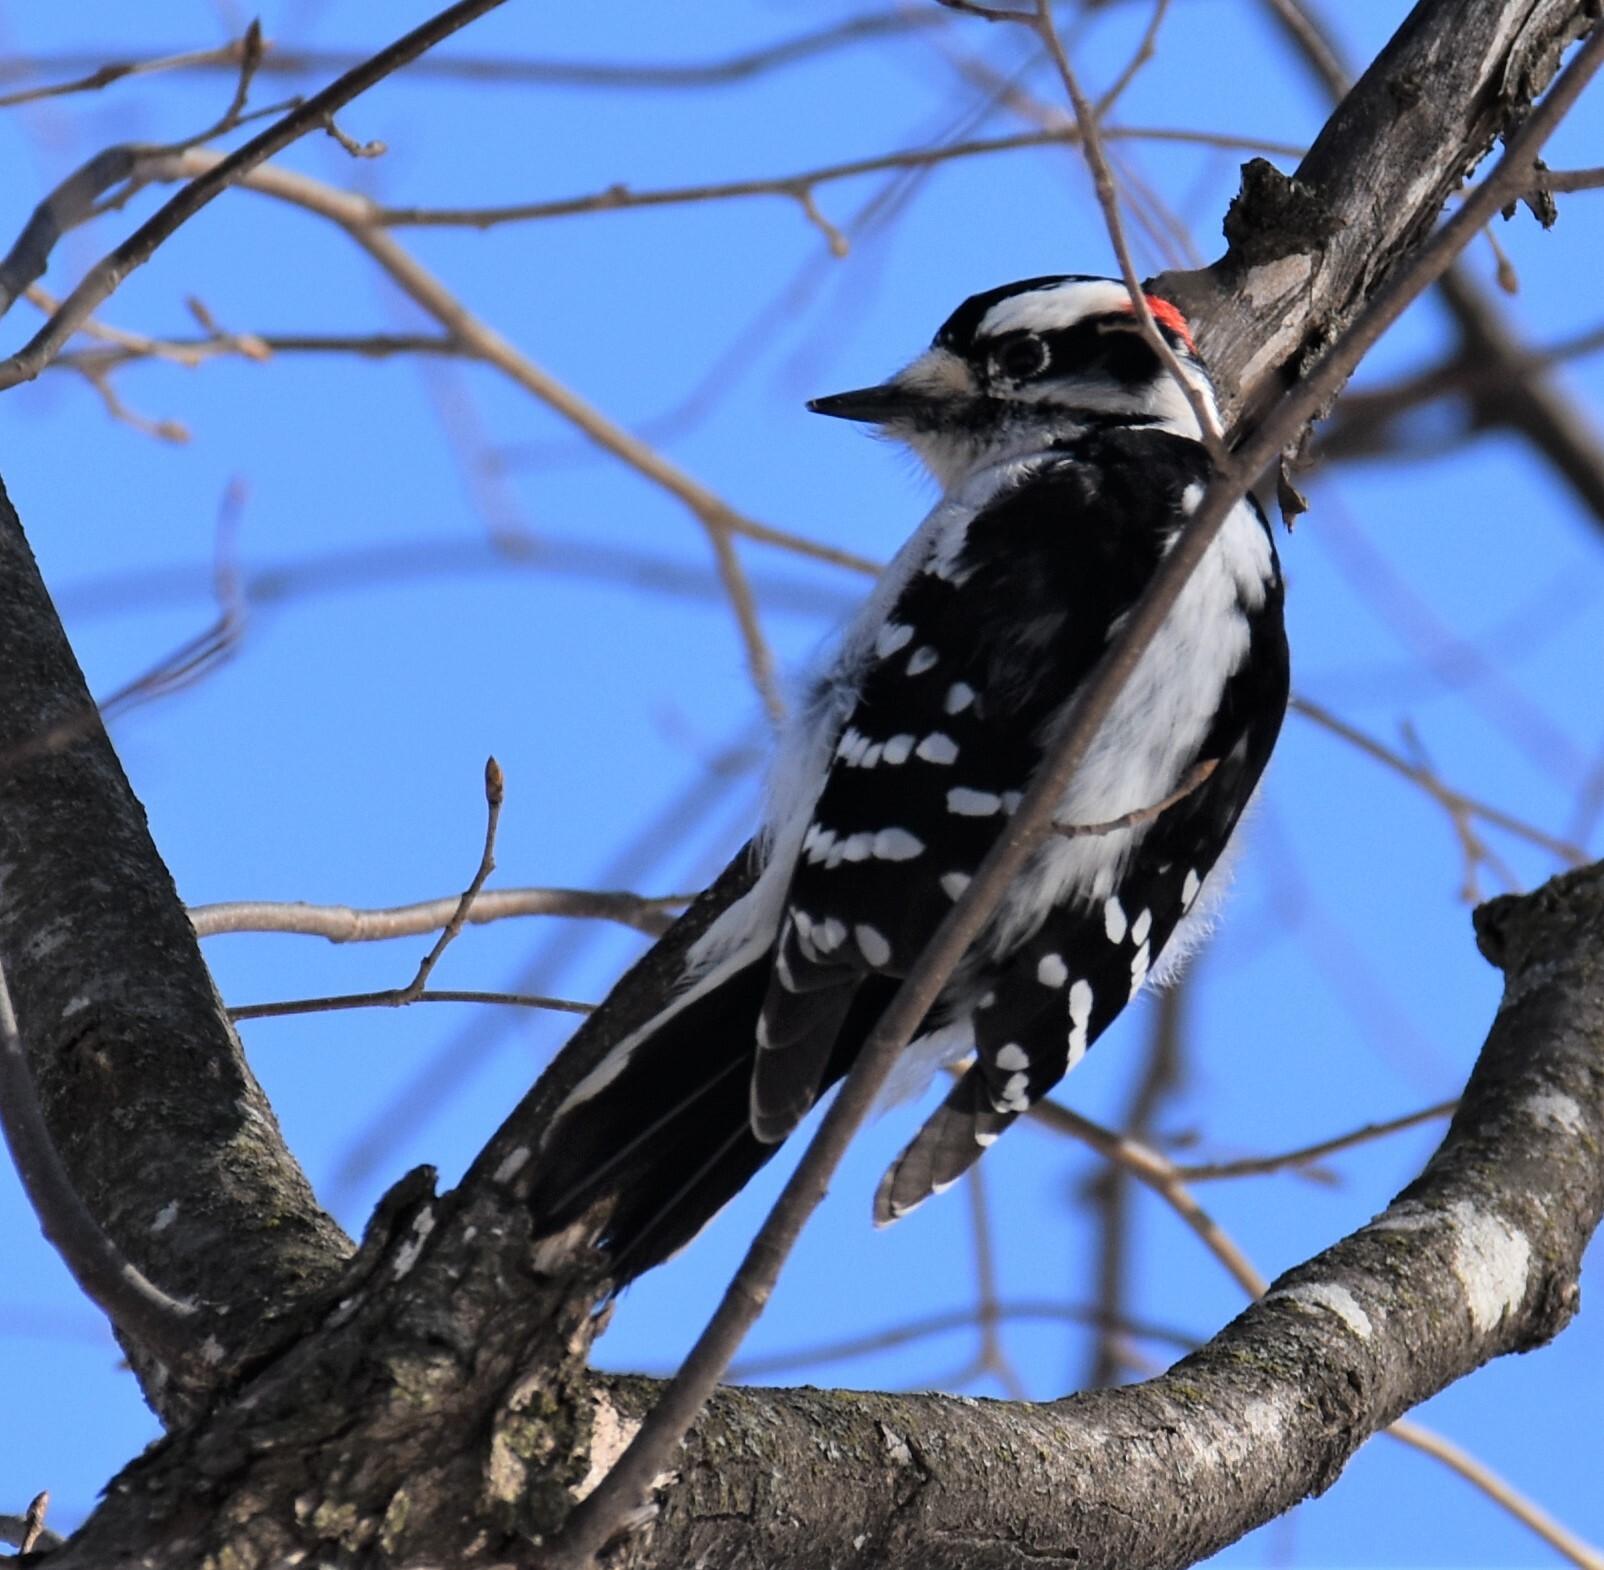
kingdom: Animalia
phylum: Chordata
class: Aves
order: Piciformes
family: Picidae
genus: Dryobates
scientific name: Dryobates pubescens
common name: Downy woodpecker
